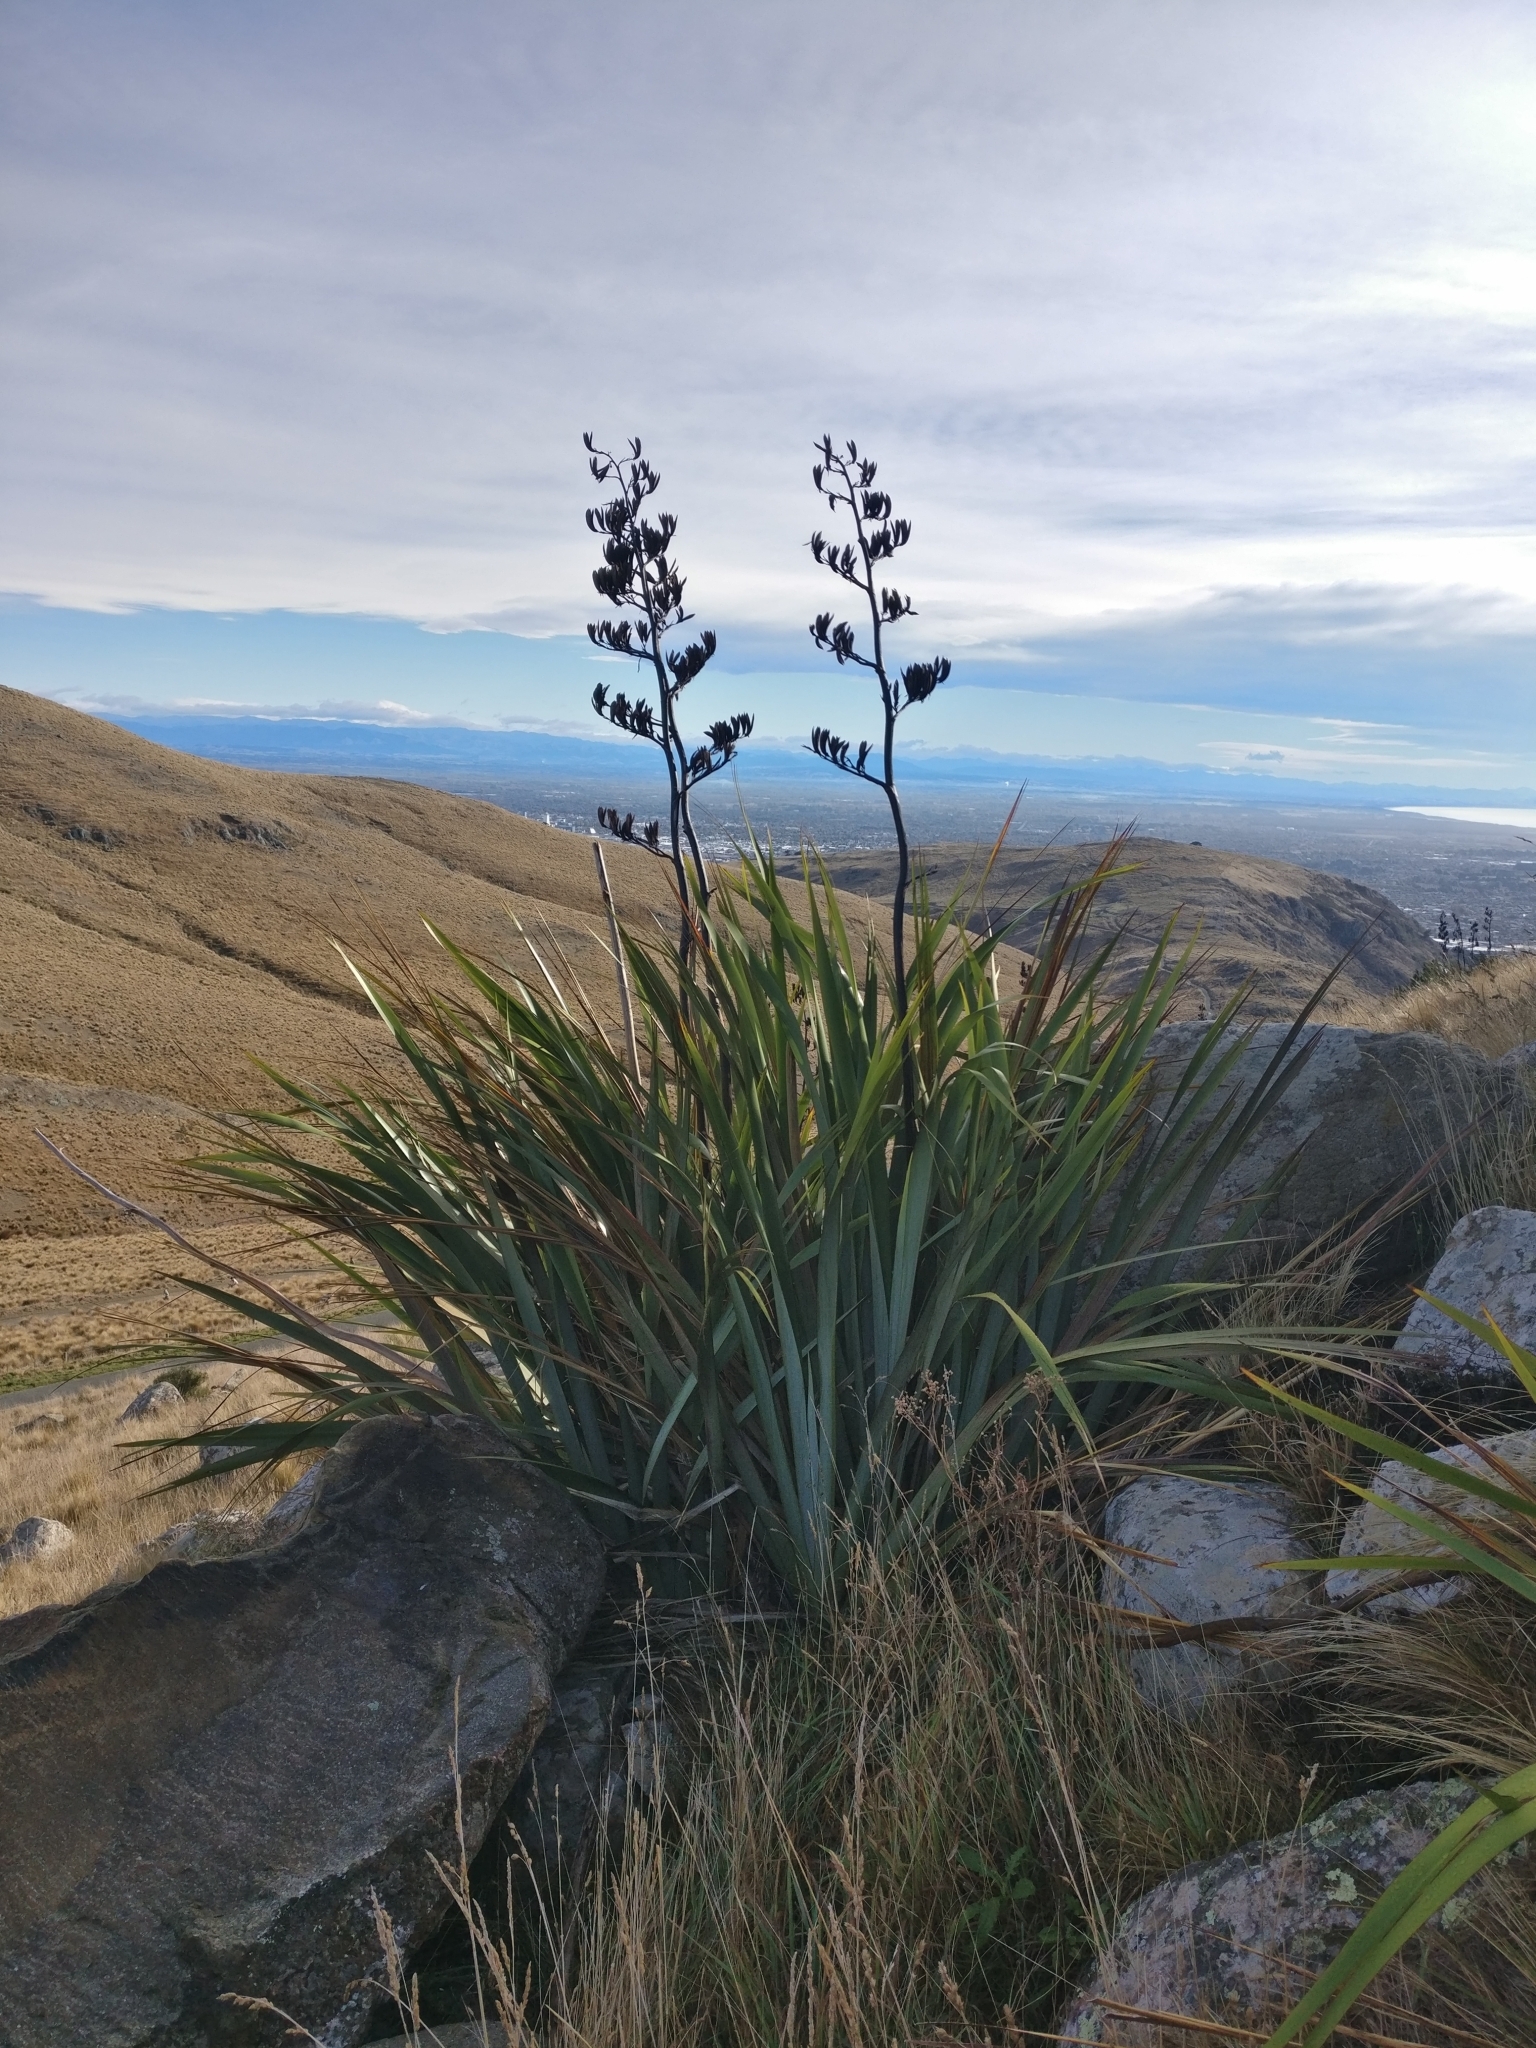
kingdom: Plantae
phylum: Tracheophyta
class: Liliopsida
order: Asparagales
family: Asphodelaceae
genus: Phormium
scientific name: Phormium tenax
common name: New zealand flax
